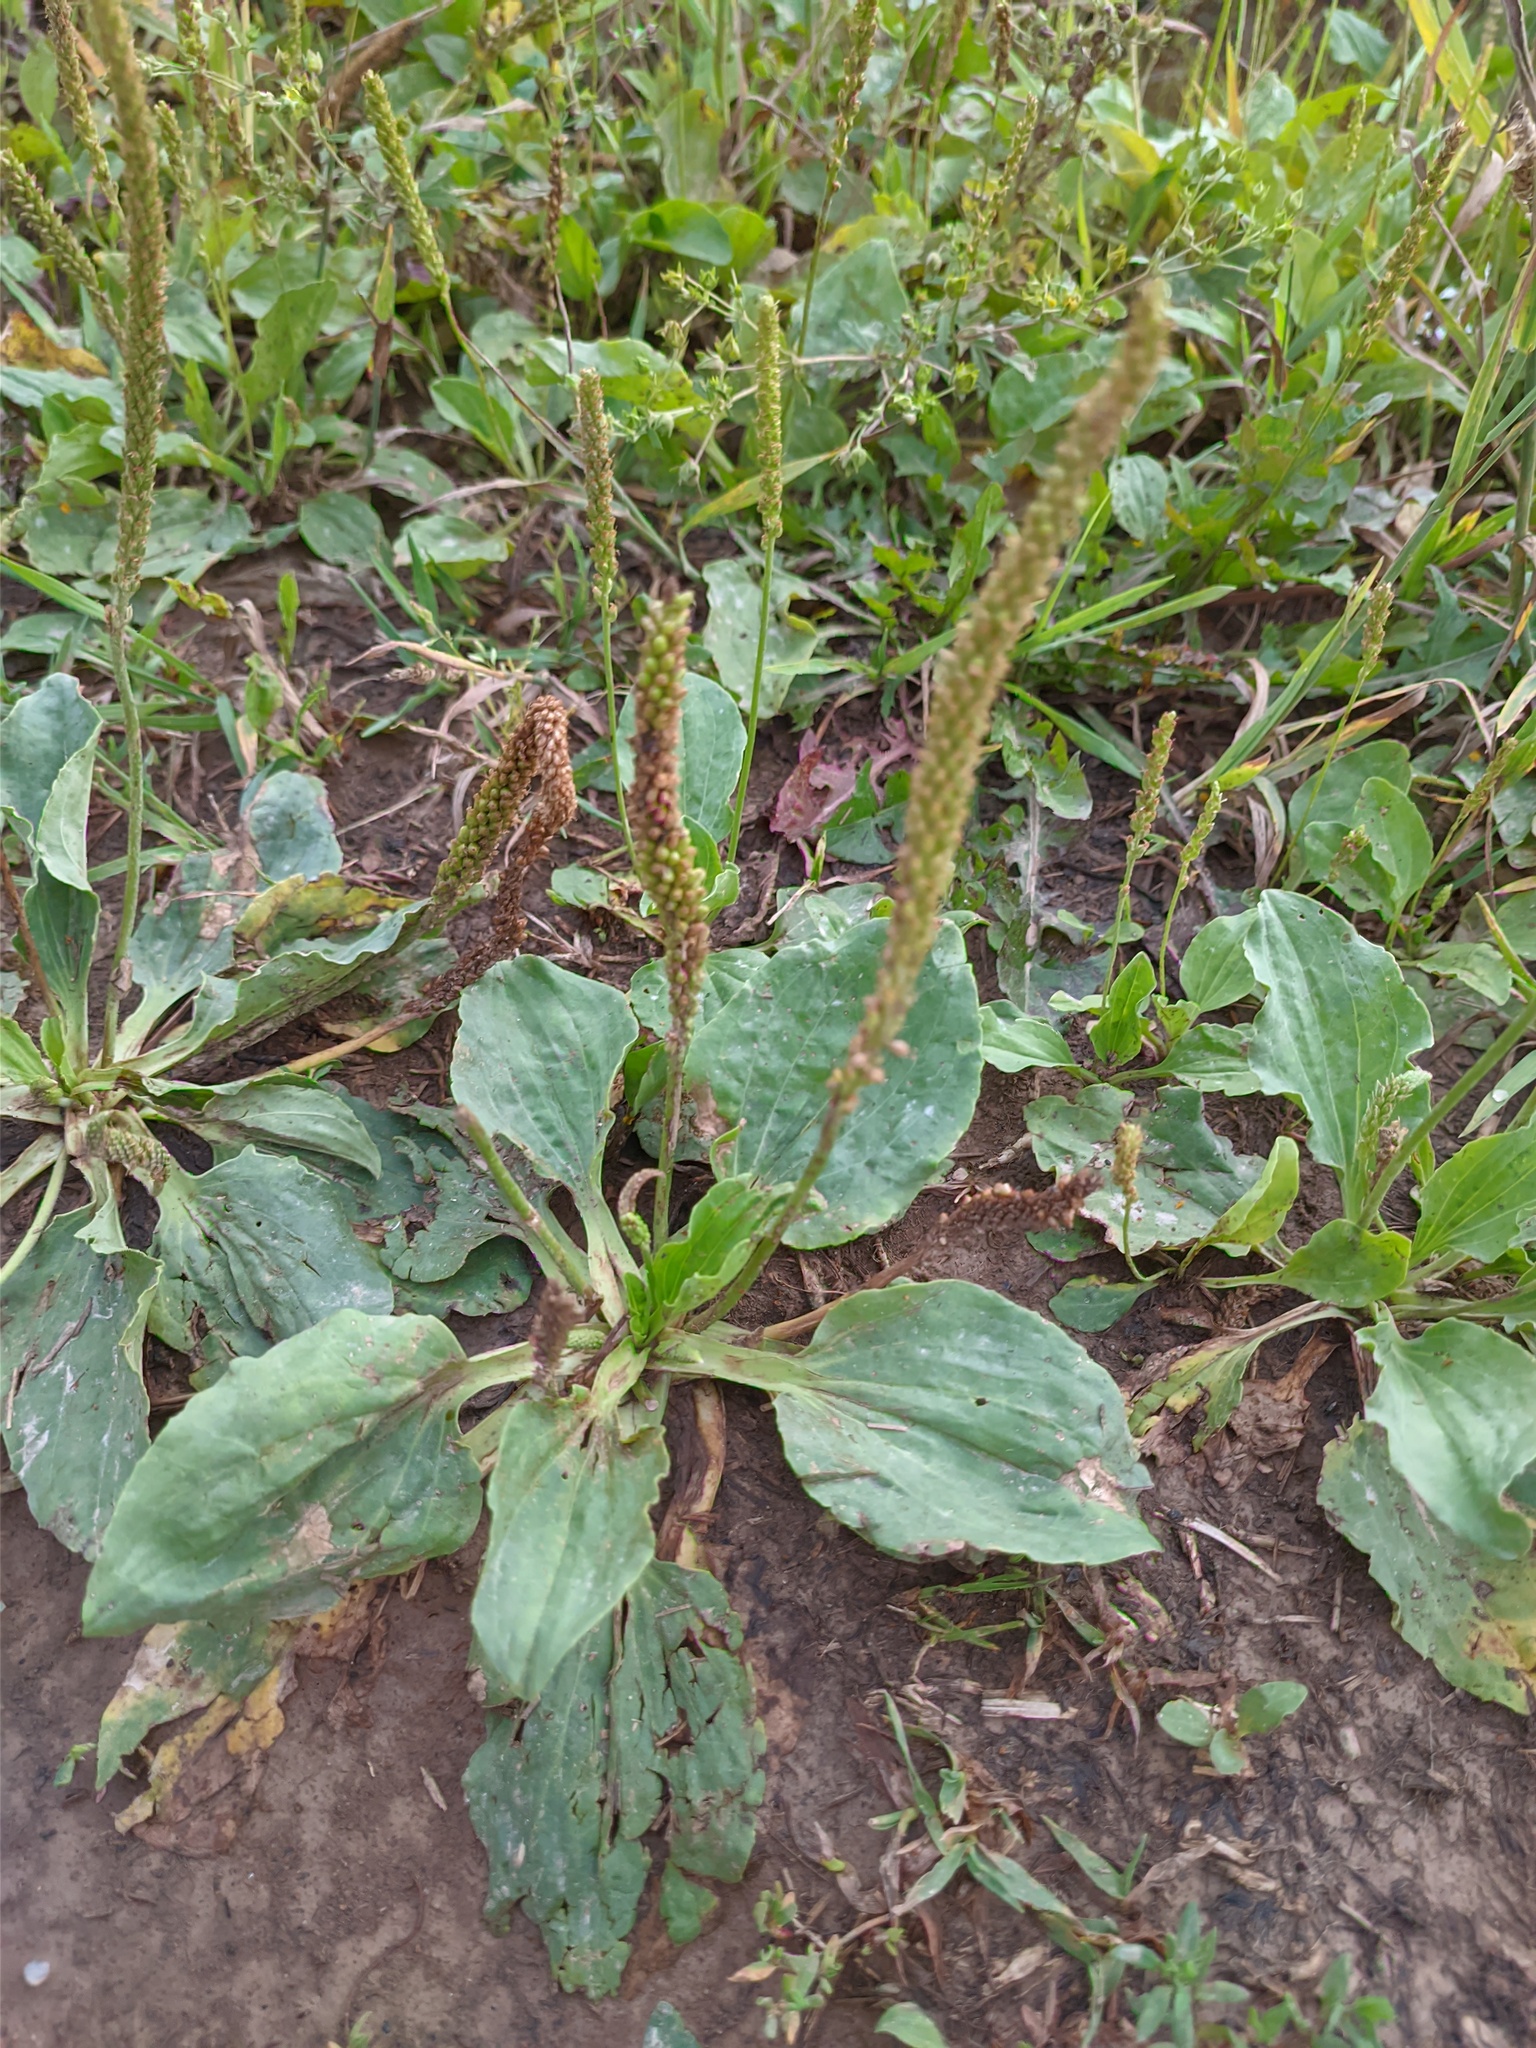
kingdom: Plantae
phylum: Tracheophyta
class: Magnoliopsida
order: Lamiales
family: Plantaginaceae
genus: Plantago
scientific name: Plantago major
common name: Common plantain
